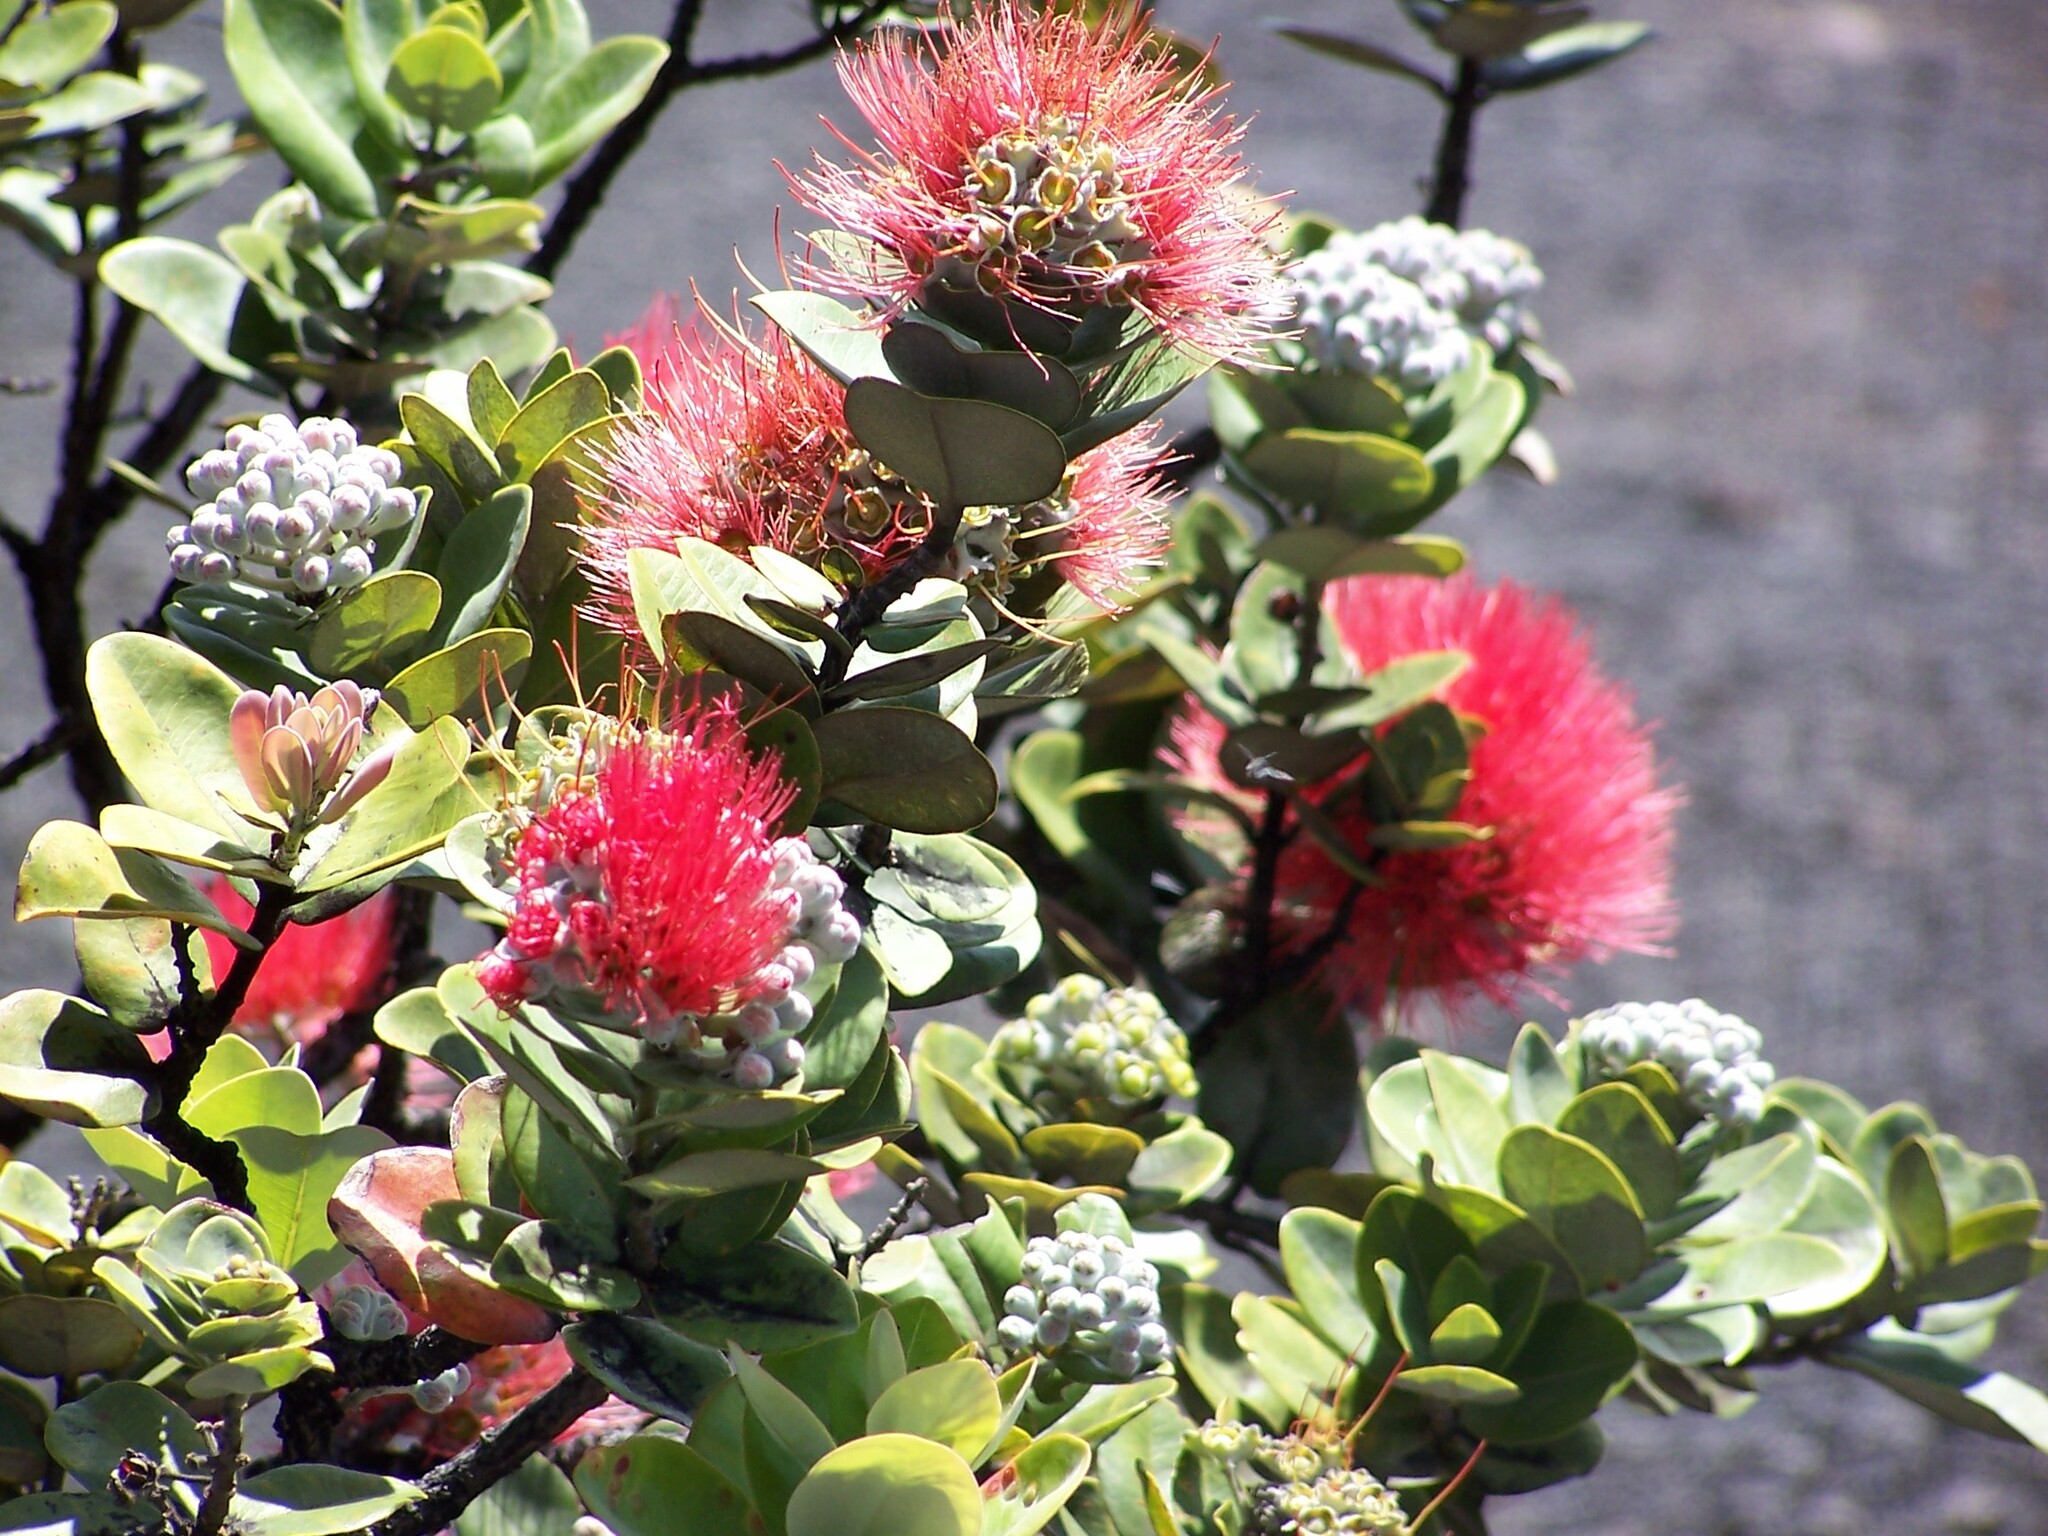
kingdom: Plantae
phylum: Tracheophyta
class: Magnoliopsida
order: Myrtales
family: Myrtaceae
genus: Metrosideros
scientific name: Metrosideros polymorpha
